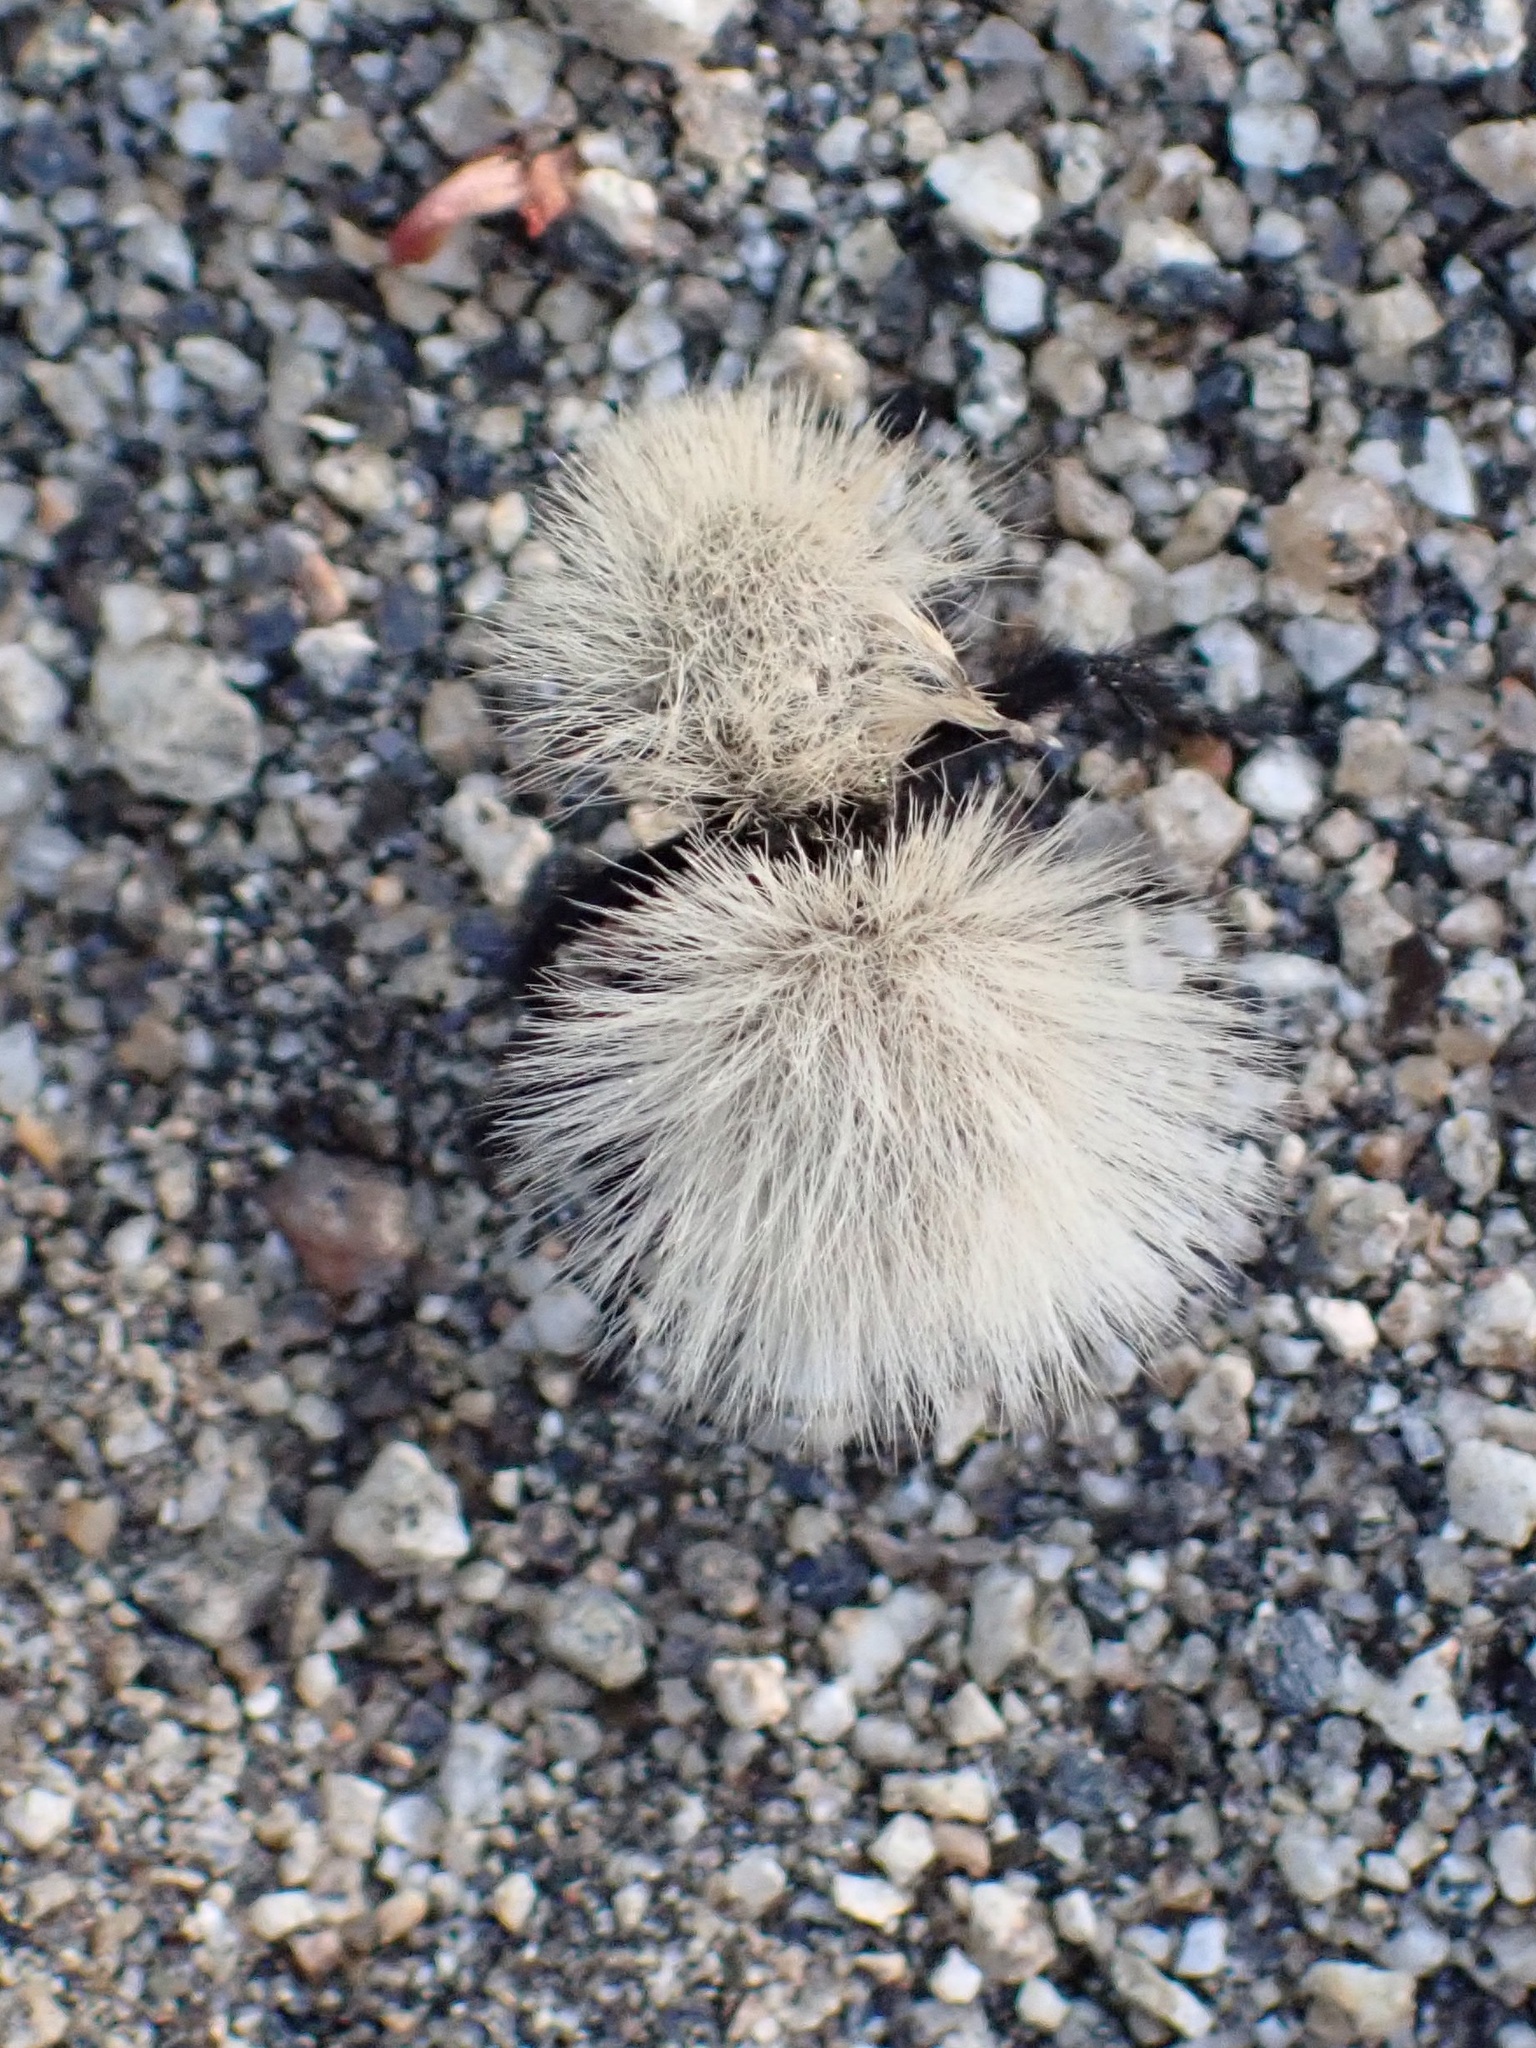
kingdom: Animalia
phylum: Arthropoda
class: Insecta
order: Hymenoptera
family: Mutillidae
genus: Dasymutilla
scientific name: Dasymutilla
